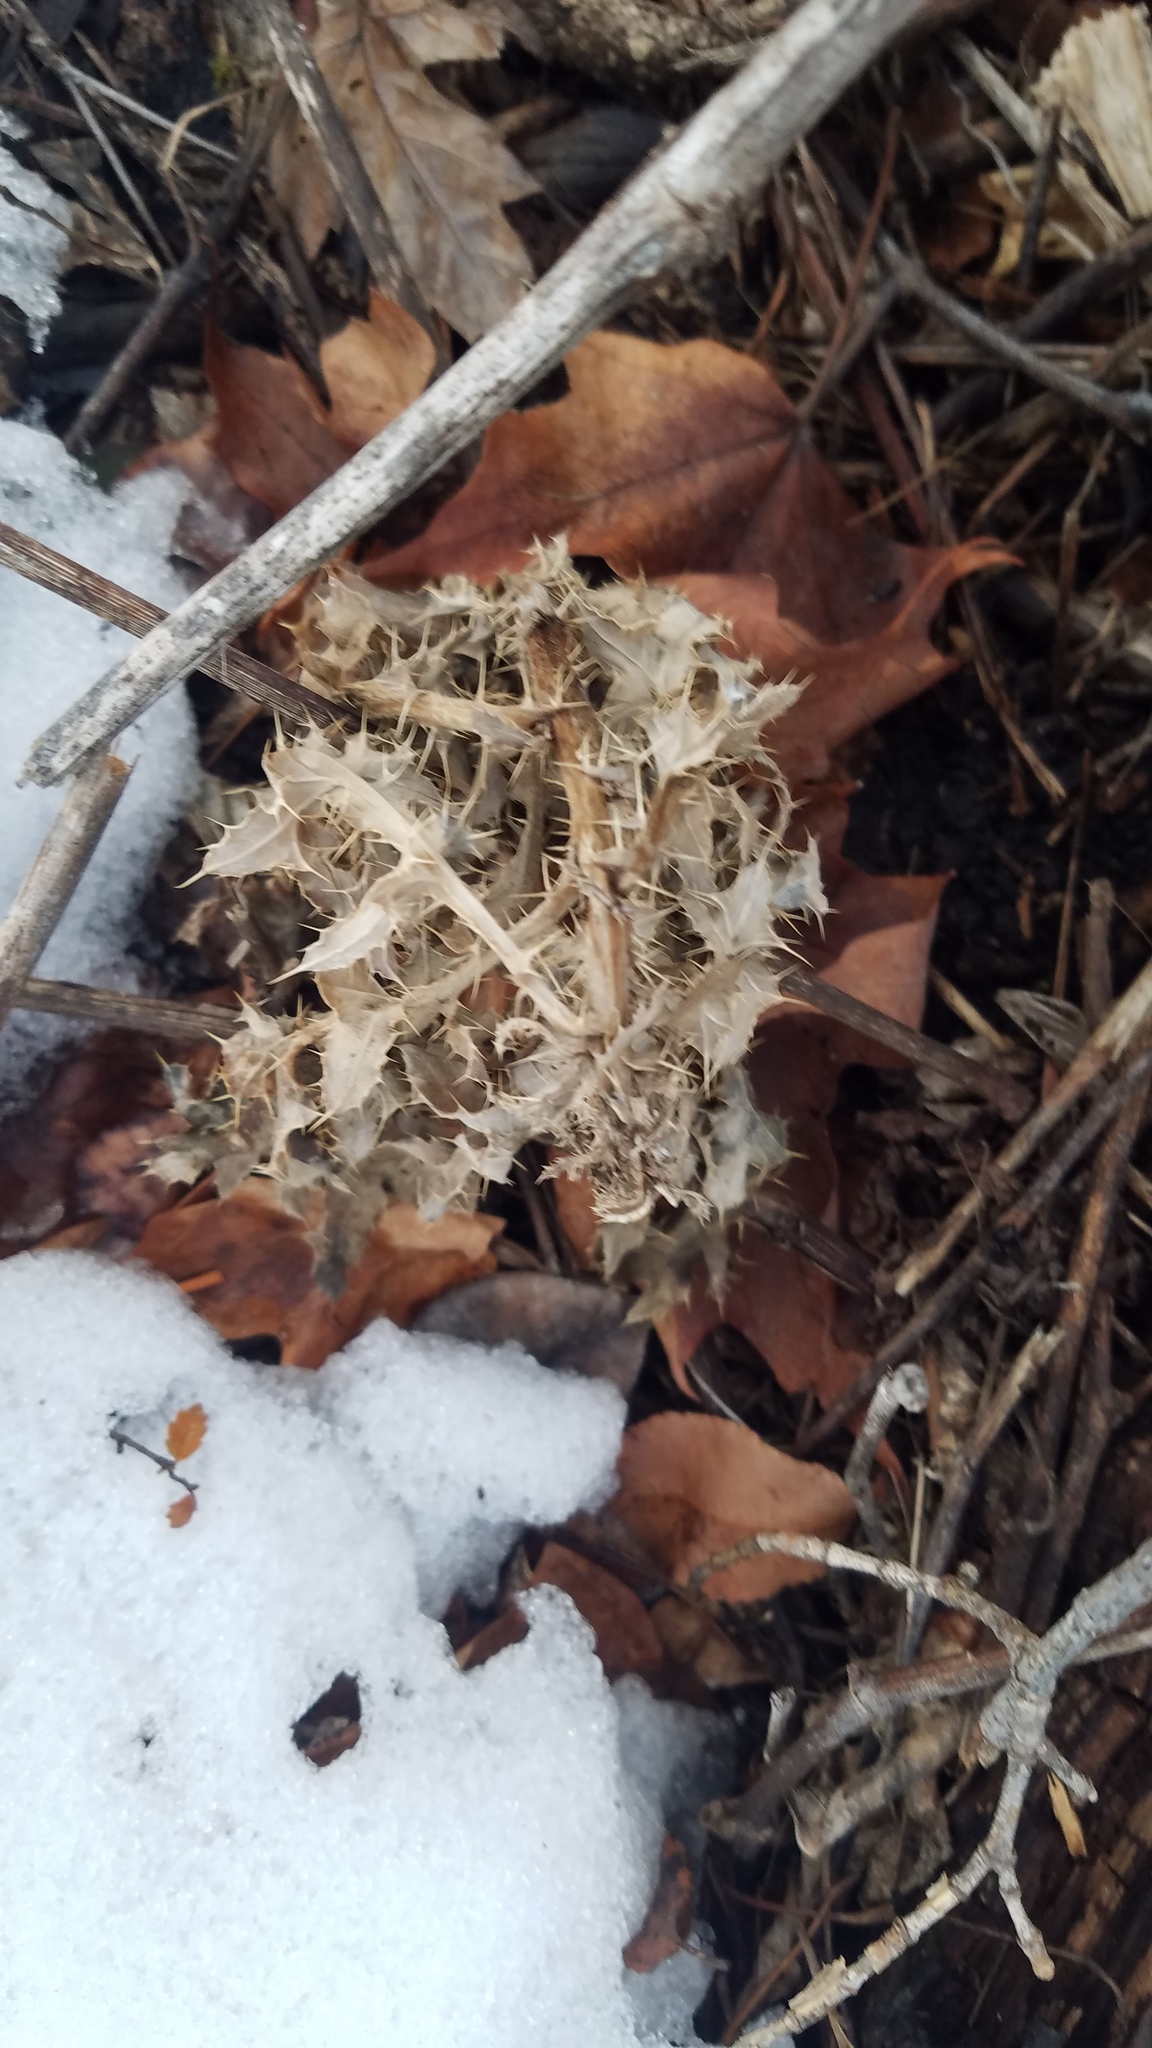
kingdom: Plantae
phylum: Tracheophyta
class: Magnoliopsida
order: Asterales
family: Asteraceae
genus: Cirsium
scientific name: Cirsium arvense
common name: Creeping thistle
